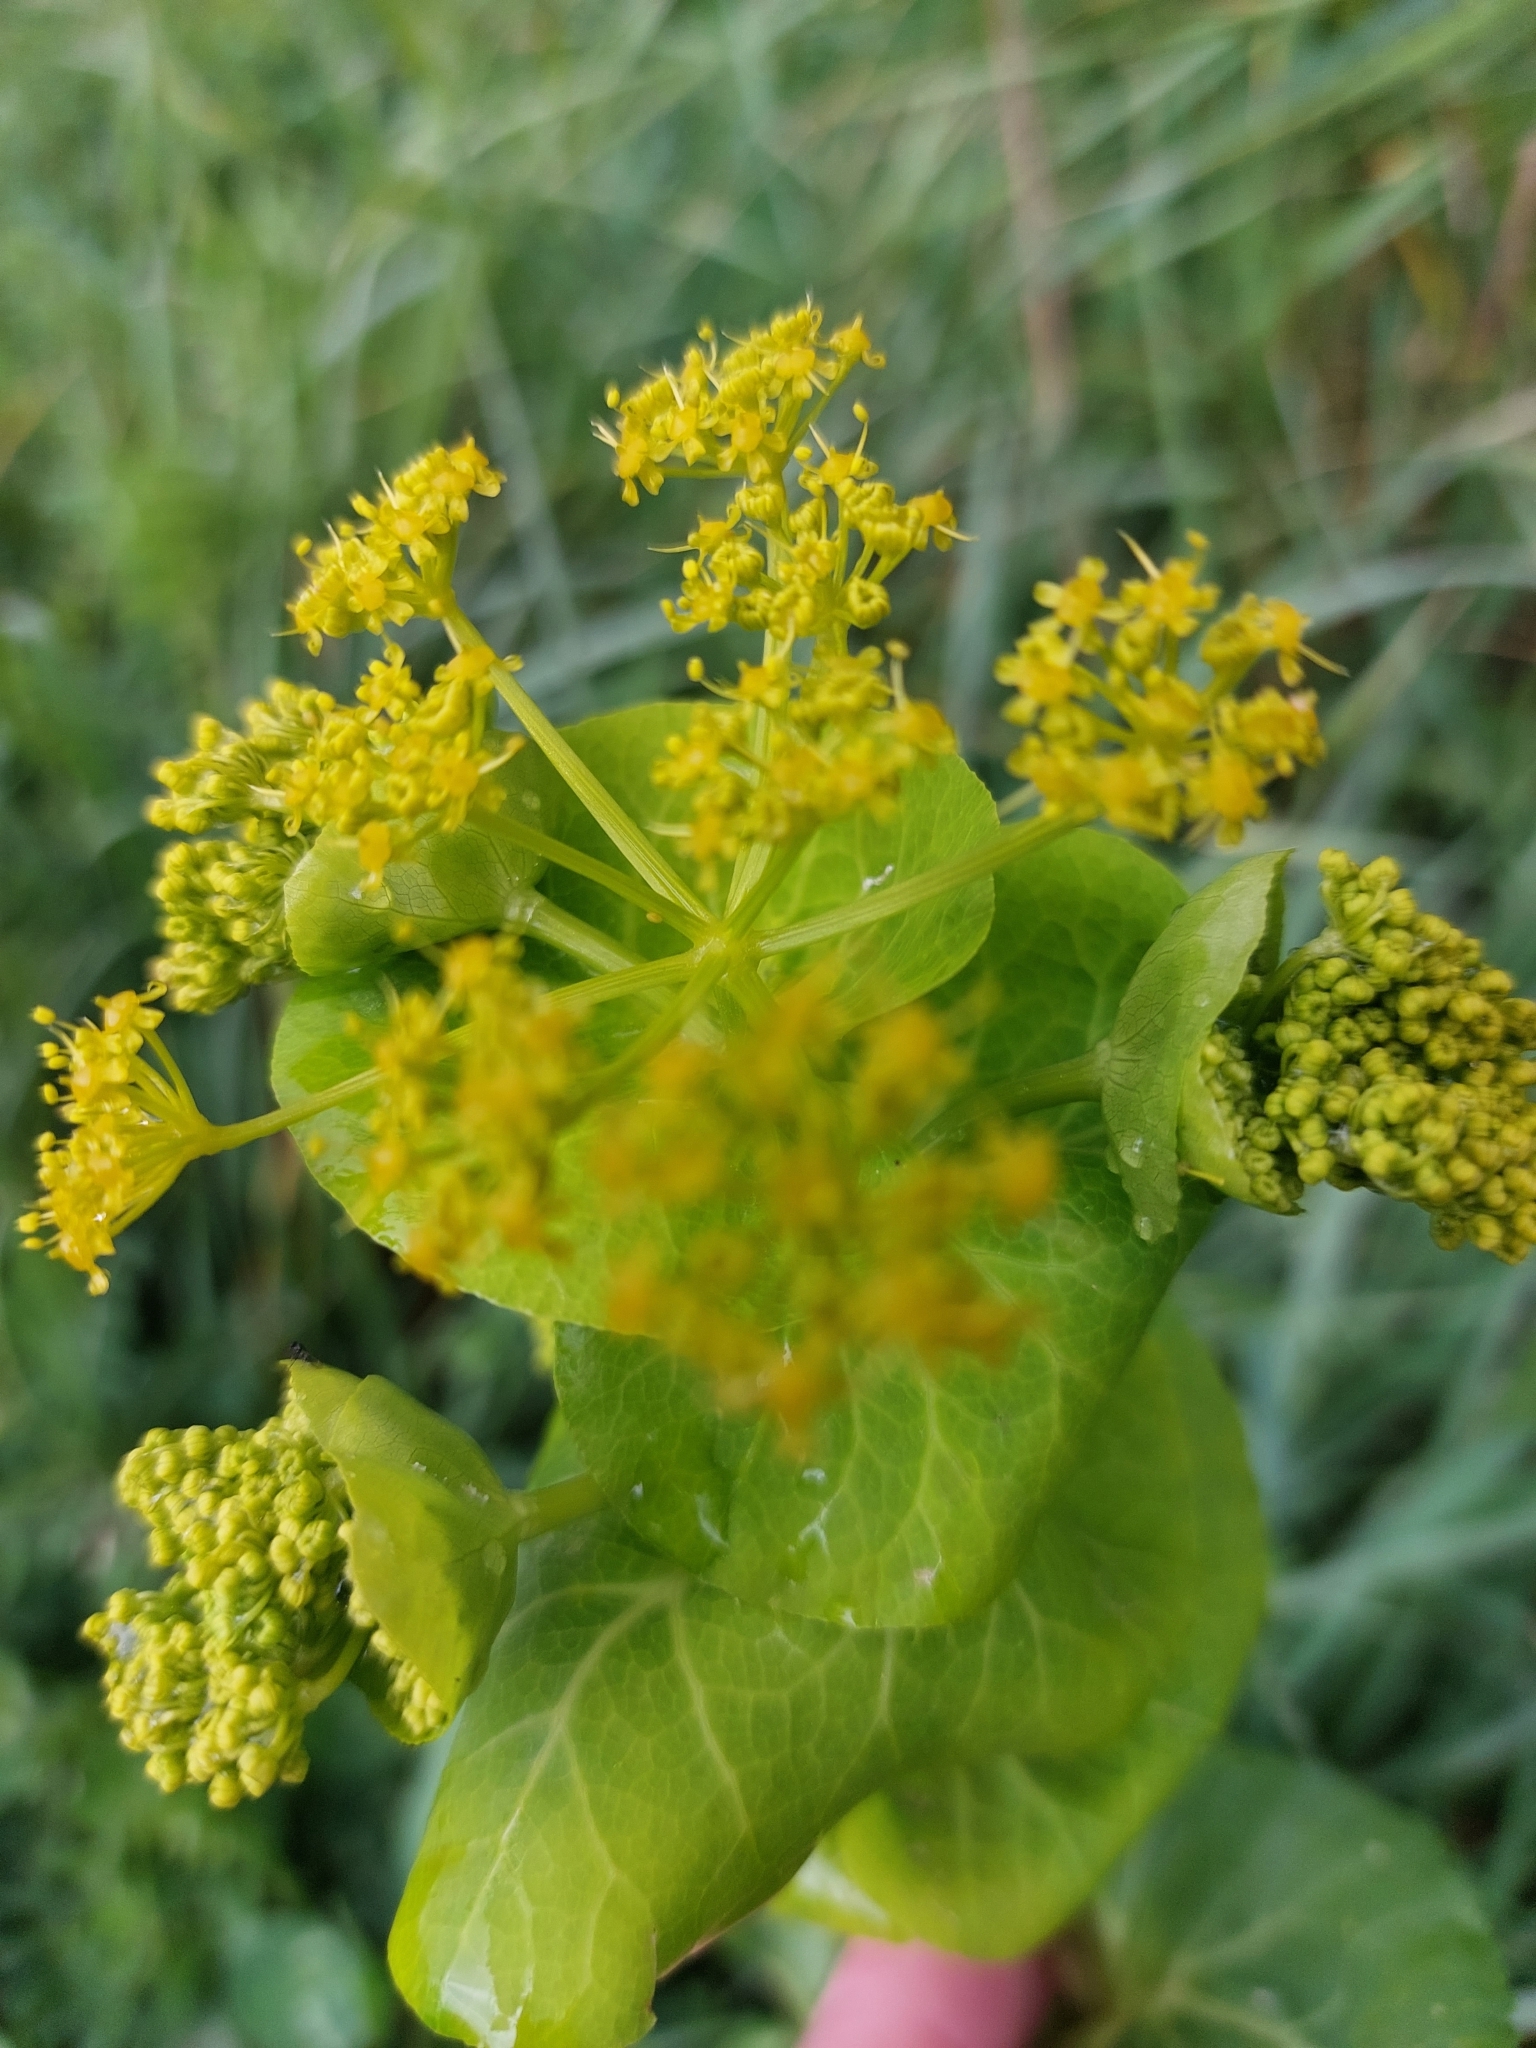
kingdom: Plantae
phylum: Tracheophyta
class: Magnoliopsida
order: Apiales
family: Apiaceae
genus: Smyrnium
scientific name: Smyrnium perfoliatum
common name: Perfoliate alexanders
